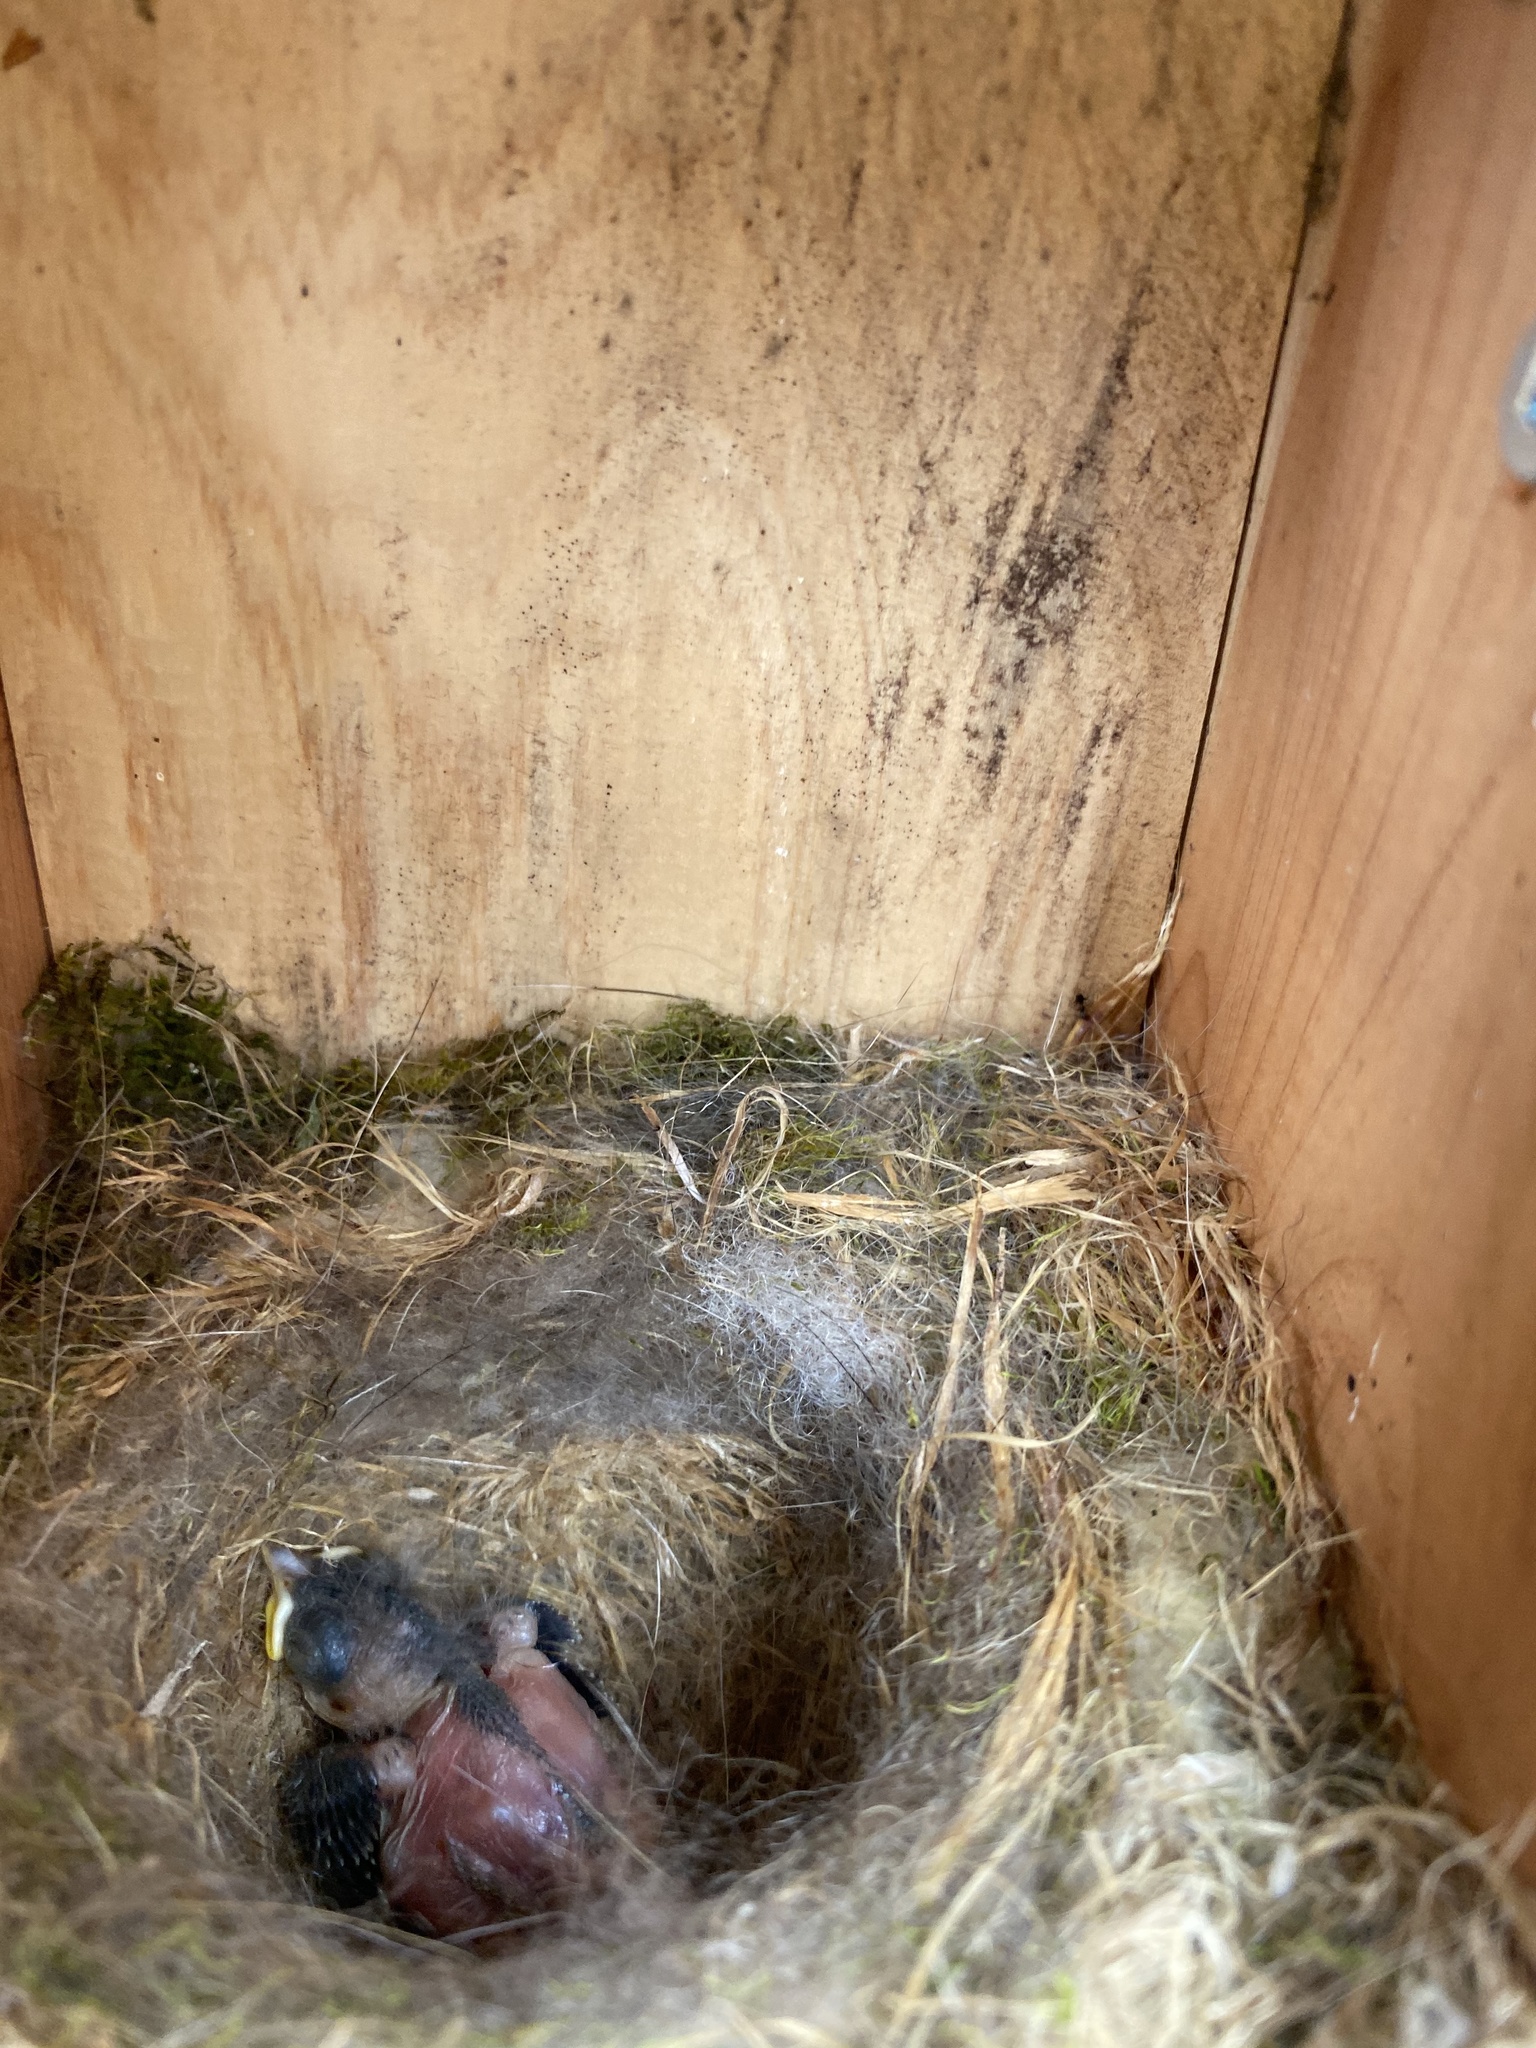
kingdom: Animalia
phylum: Chordata
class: Aves
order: Passeriformes
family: Paridae
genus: Poecile
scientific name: Poecile carolinensis
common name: Carolina chickadee
